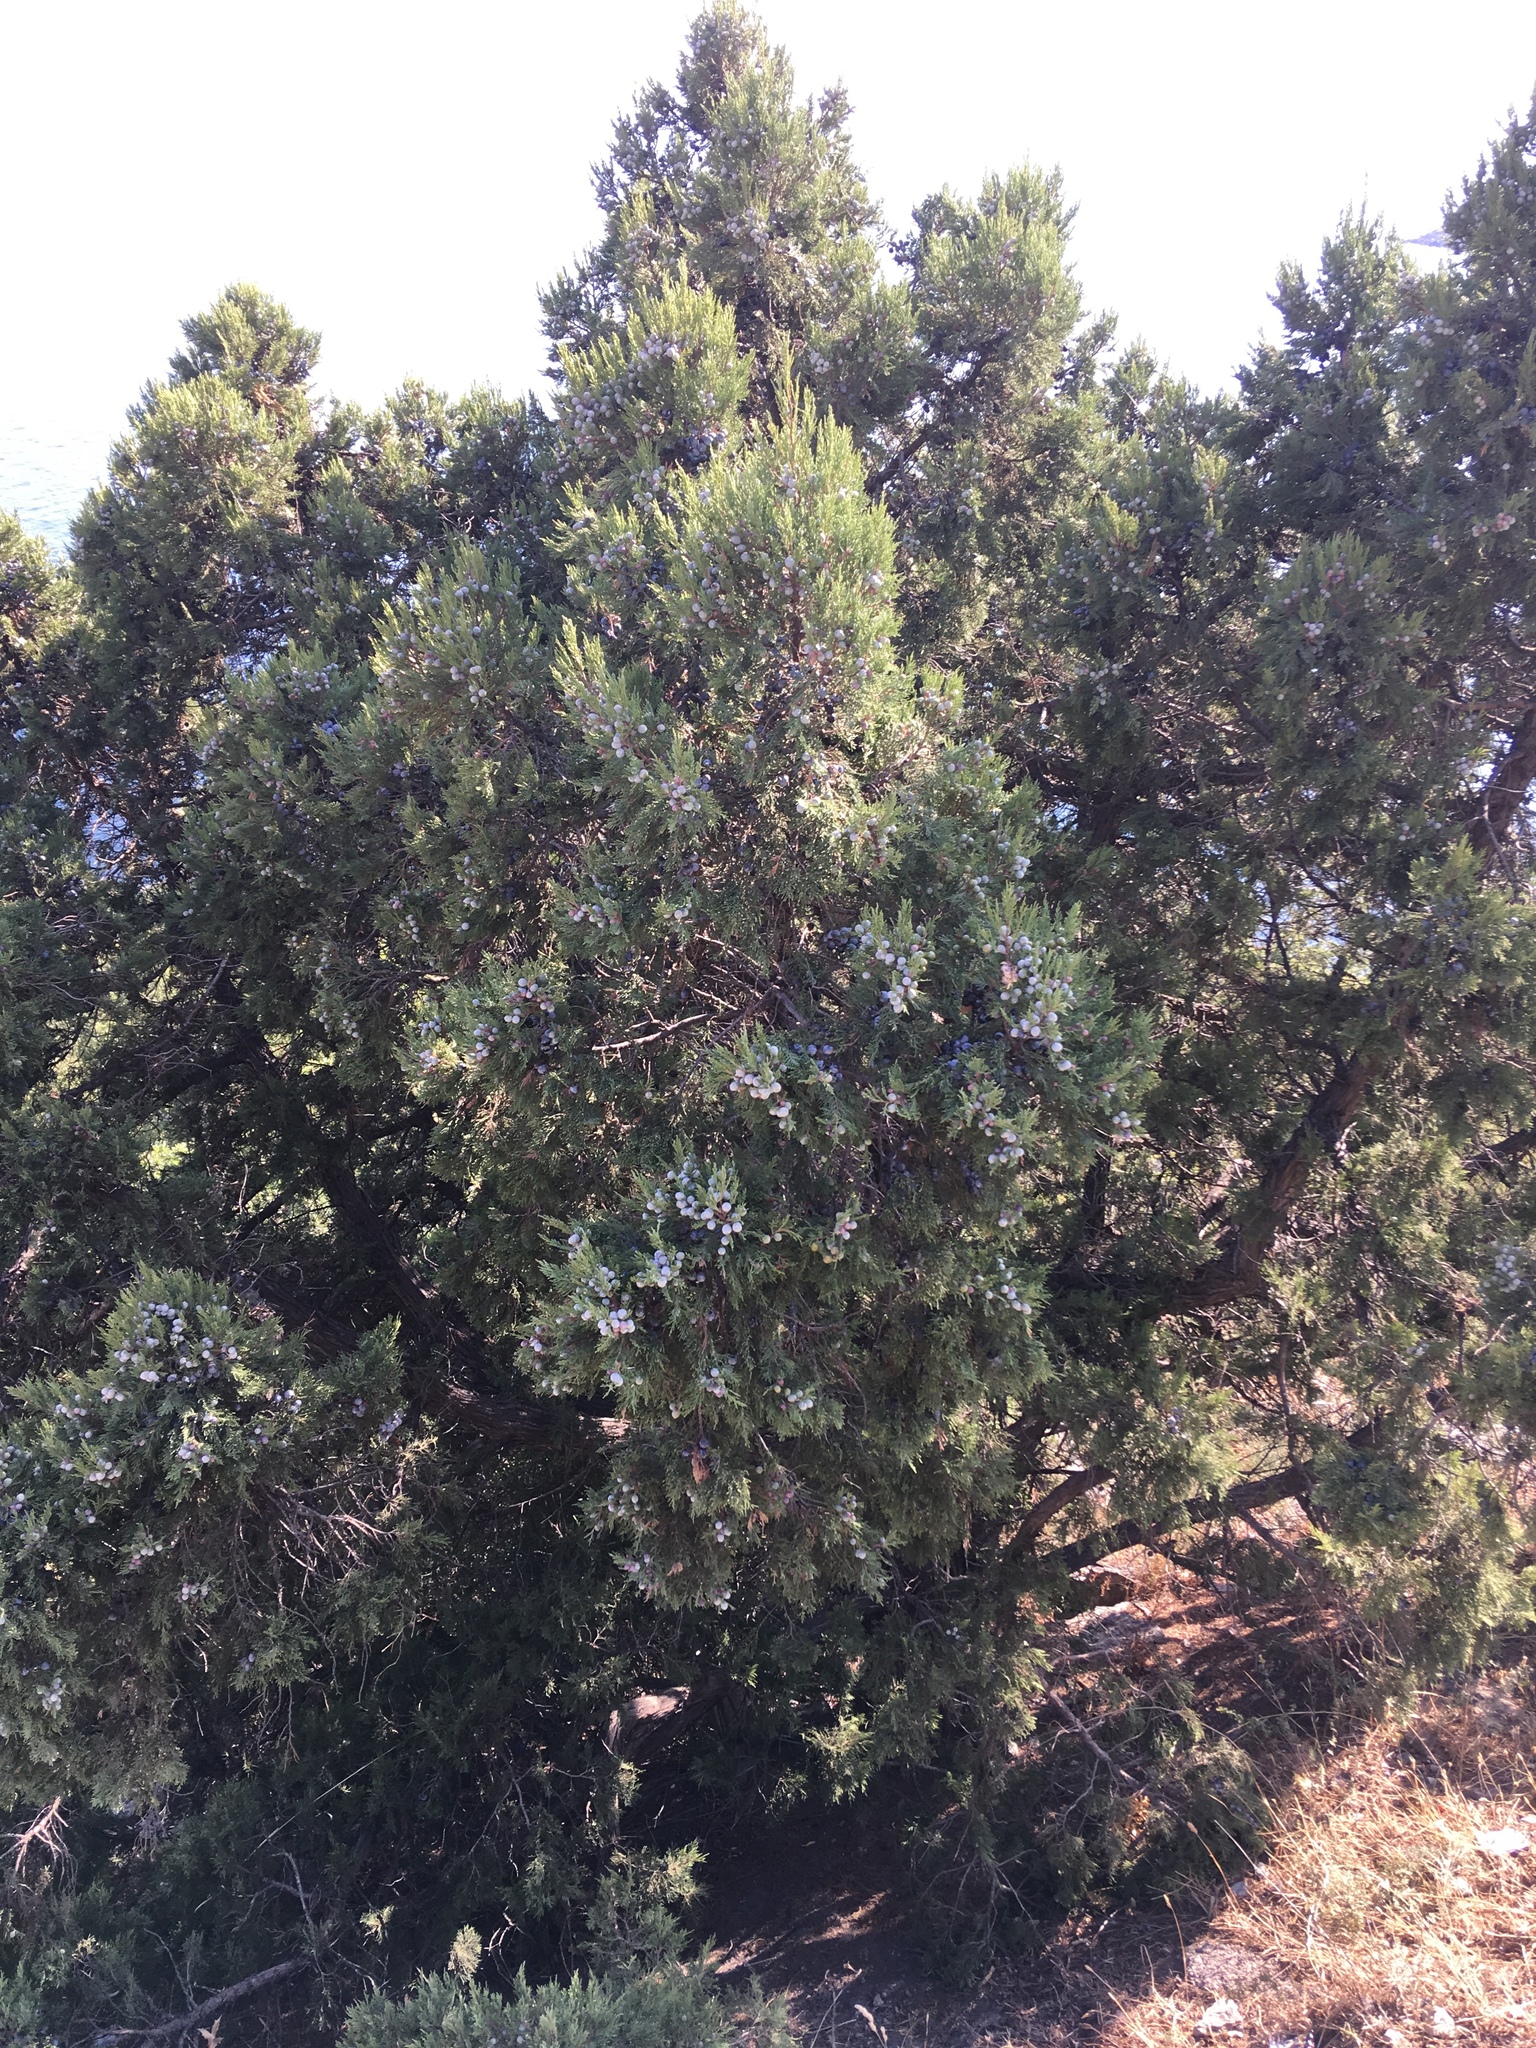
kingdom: Plantae
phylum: Tracheophyta
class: Pinopsida
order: Pinales
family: Cupressaceae
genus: Juniperus
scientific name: Juniperus excelsa
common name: Crimean juniper
